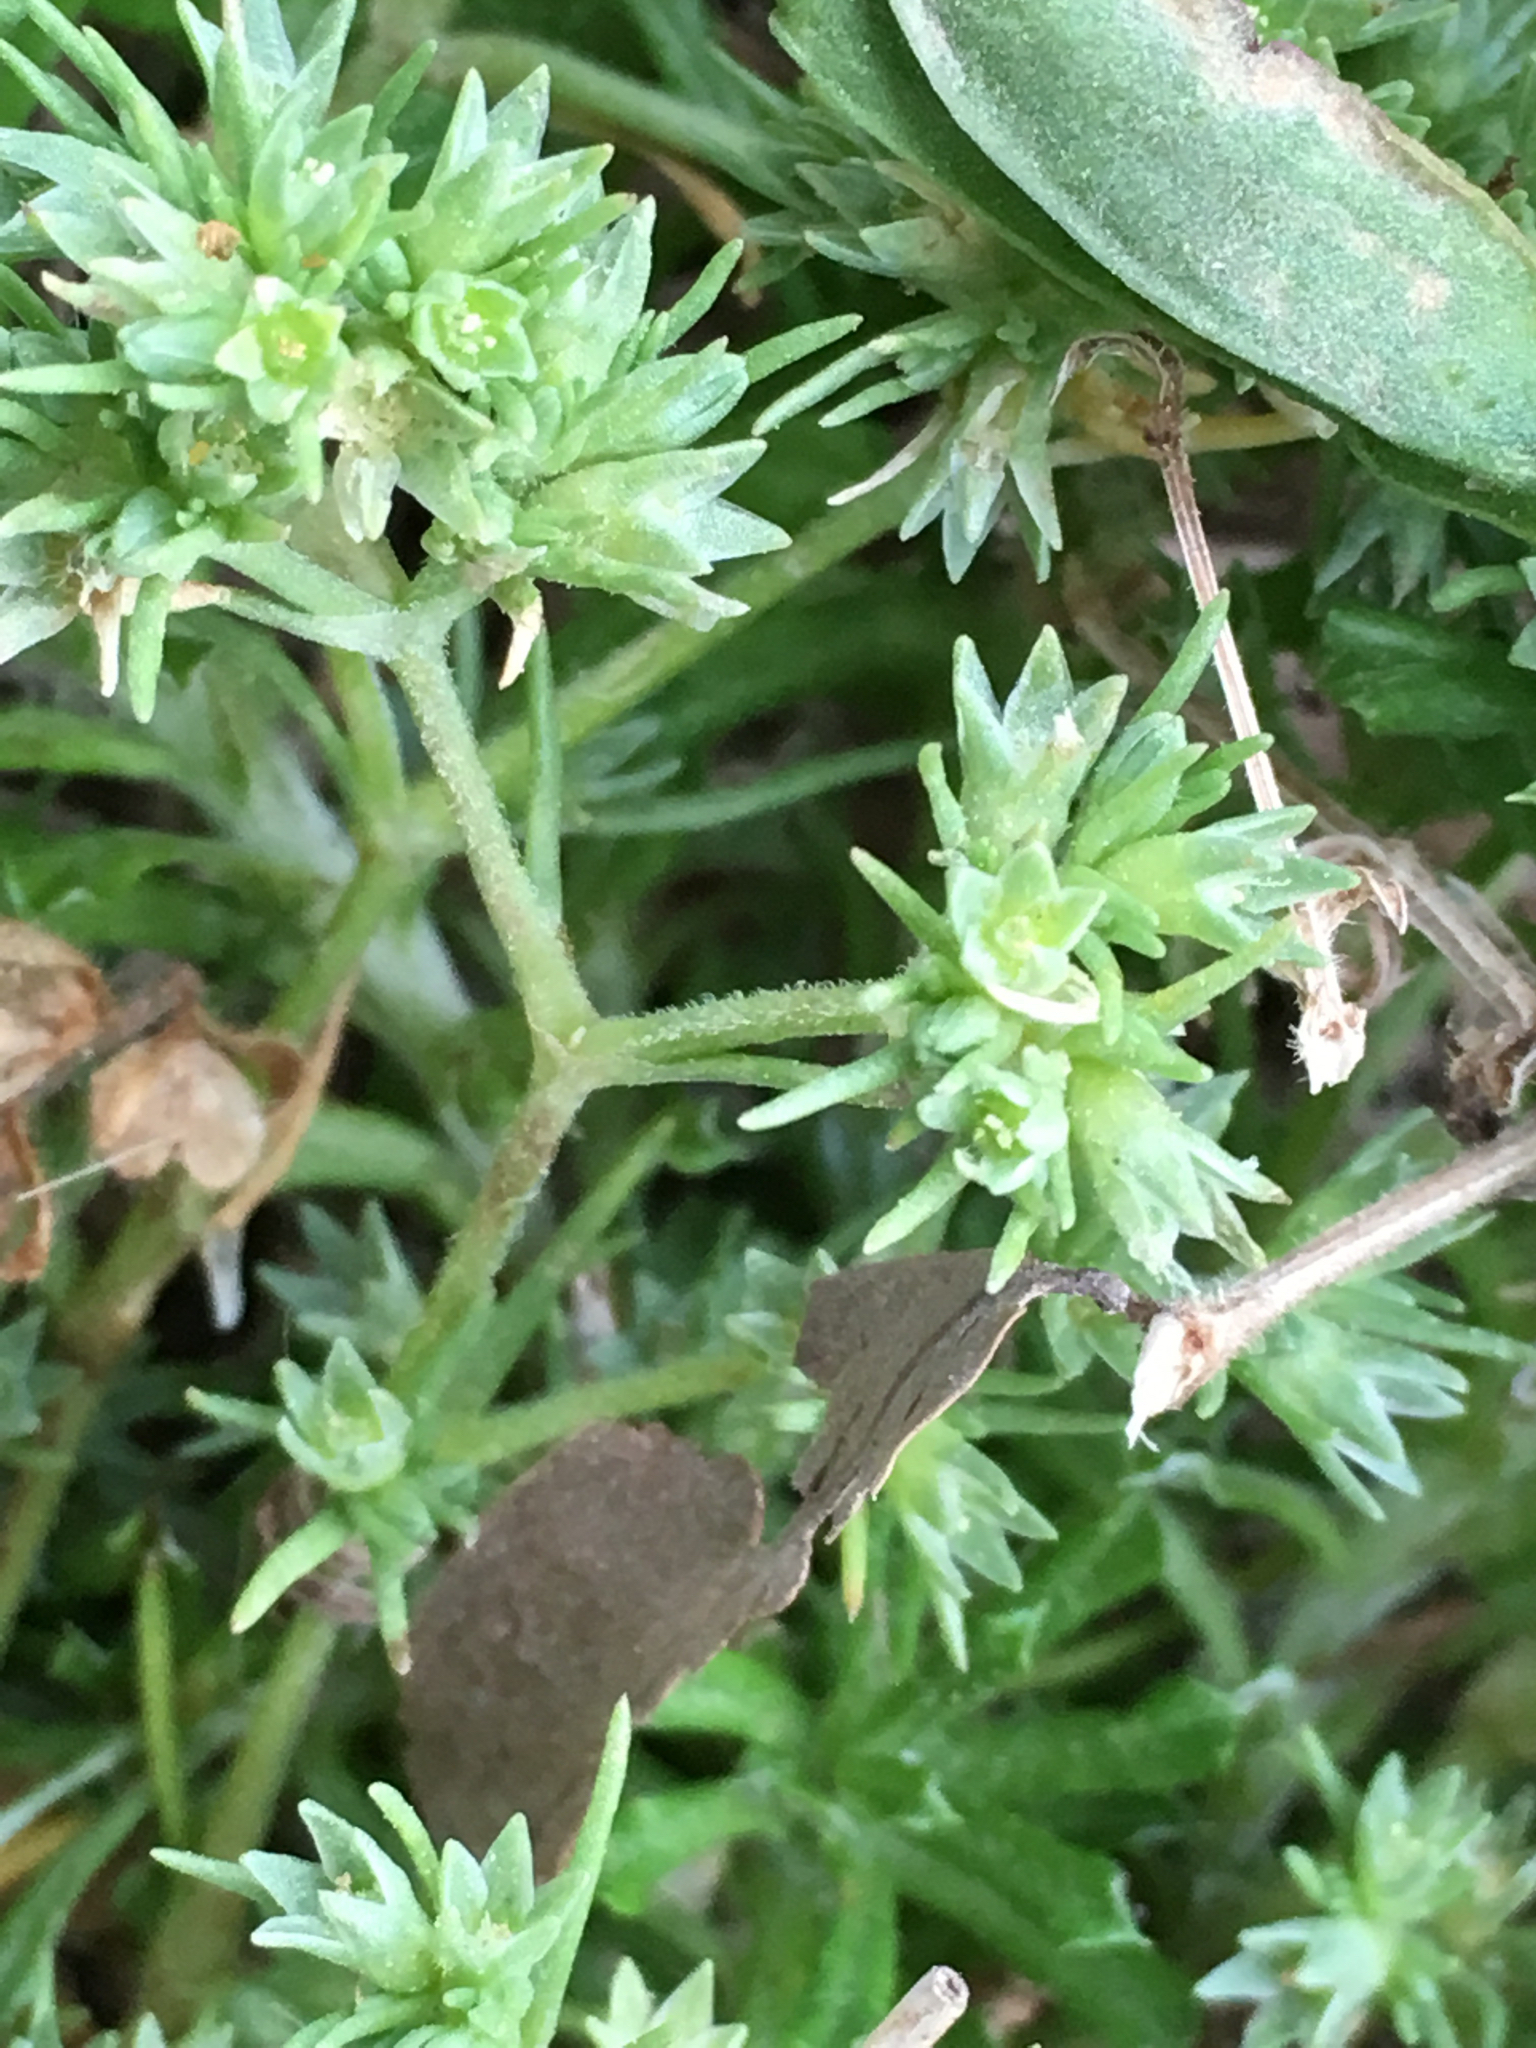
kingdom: Plantae
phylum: Tracheophyta
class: Magnoliopsida
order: Caryophyllales
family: Caryophyllaceae
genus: Scleranthus
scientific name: Scleranthus annuus
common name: Annual knawel
